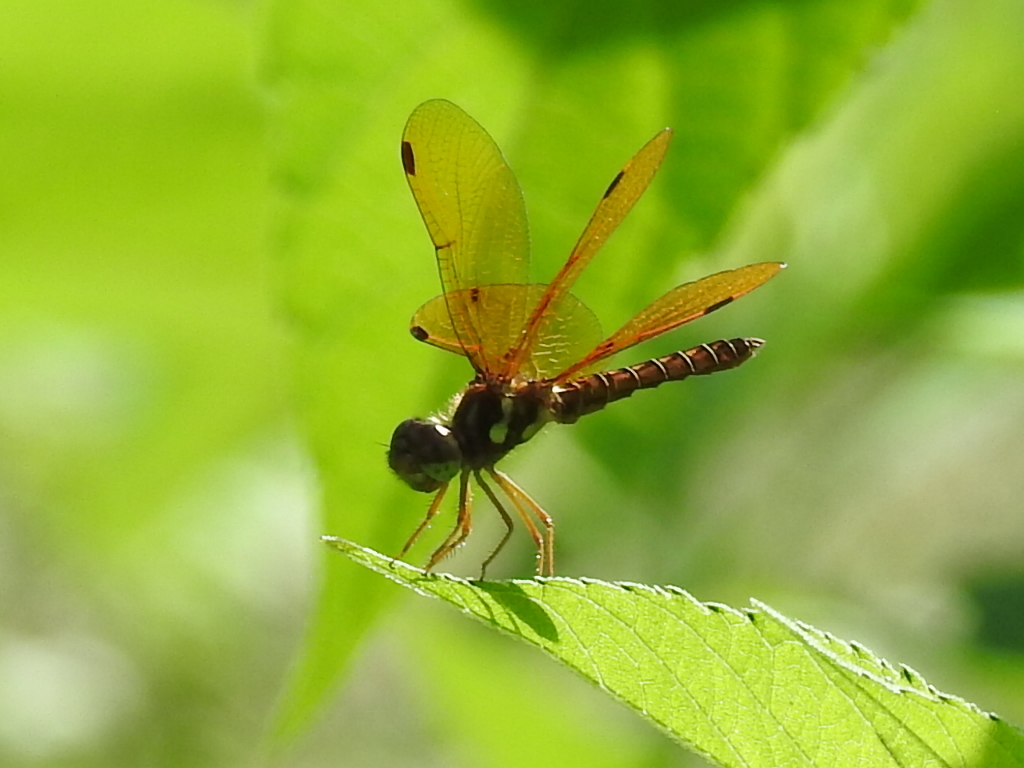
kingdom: Animalia
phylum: Arthropoda
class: Insecta
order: Odonata
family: Libellulidae
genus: Perithemis
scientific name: Perithemis tenera
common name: Eastern amberwing
